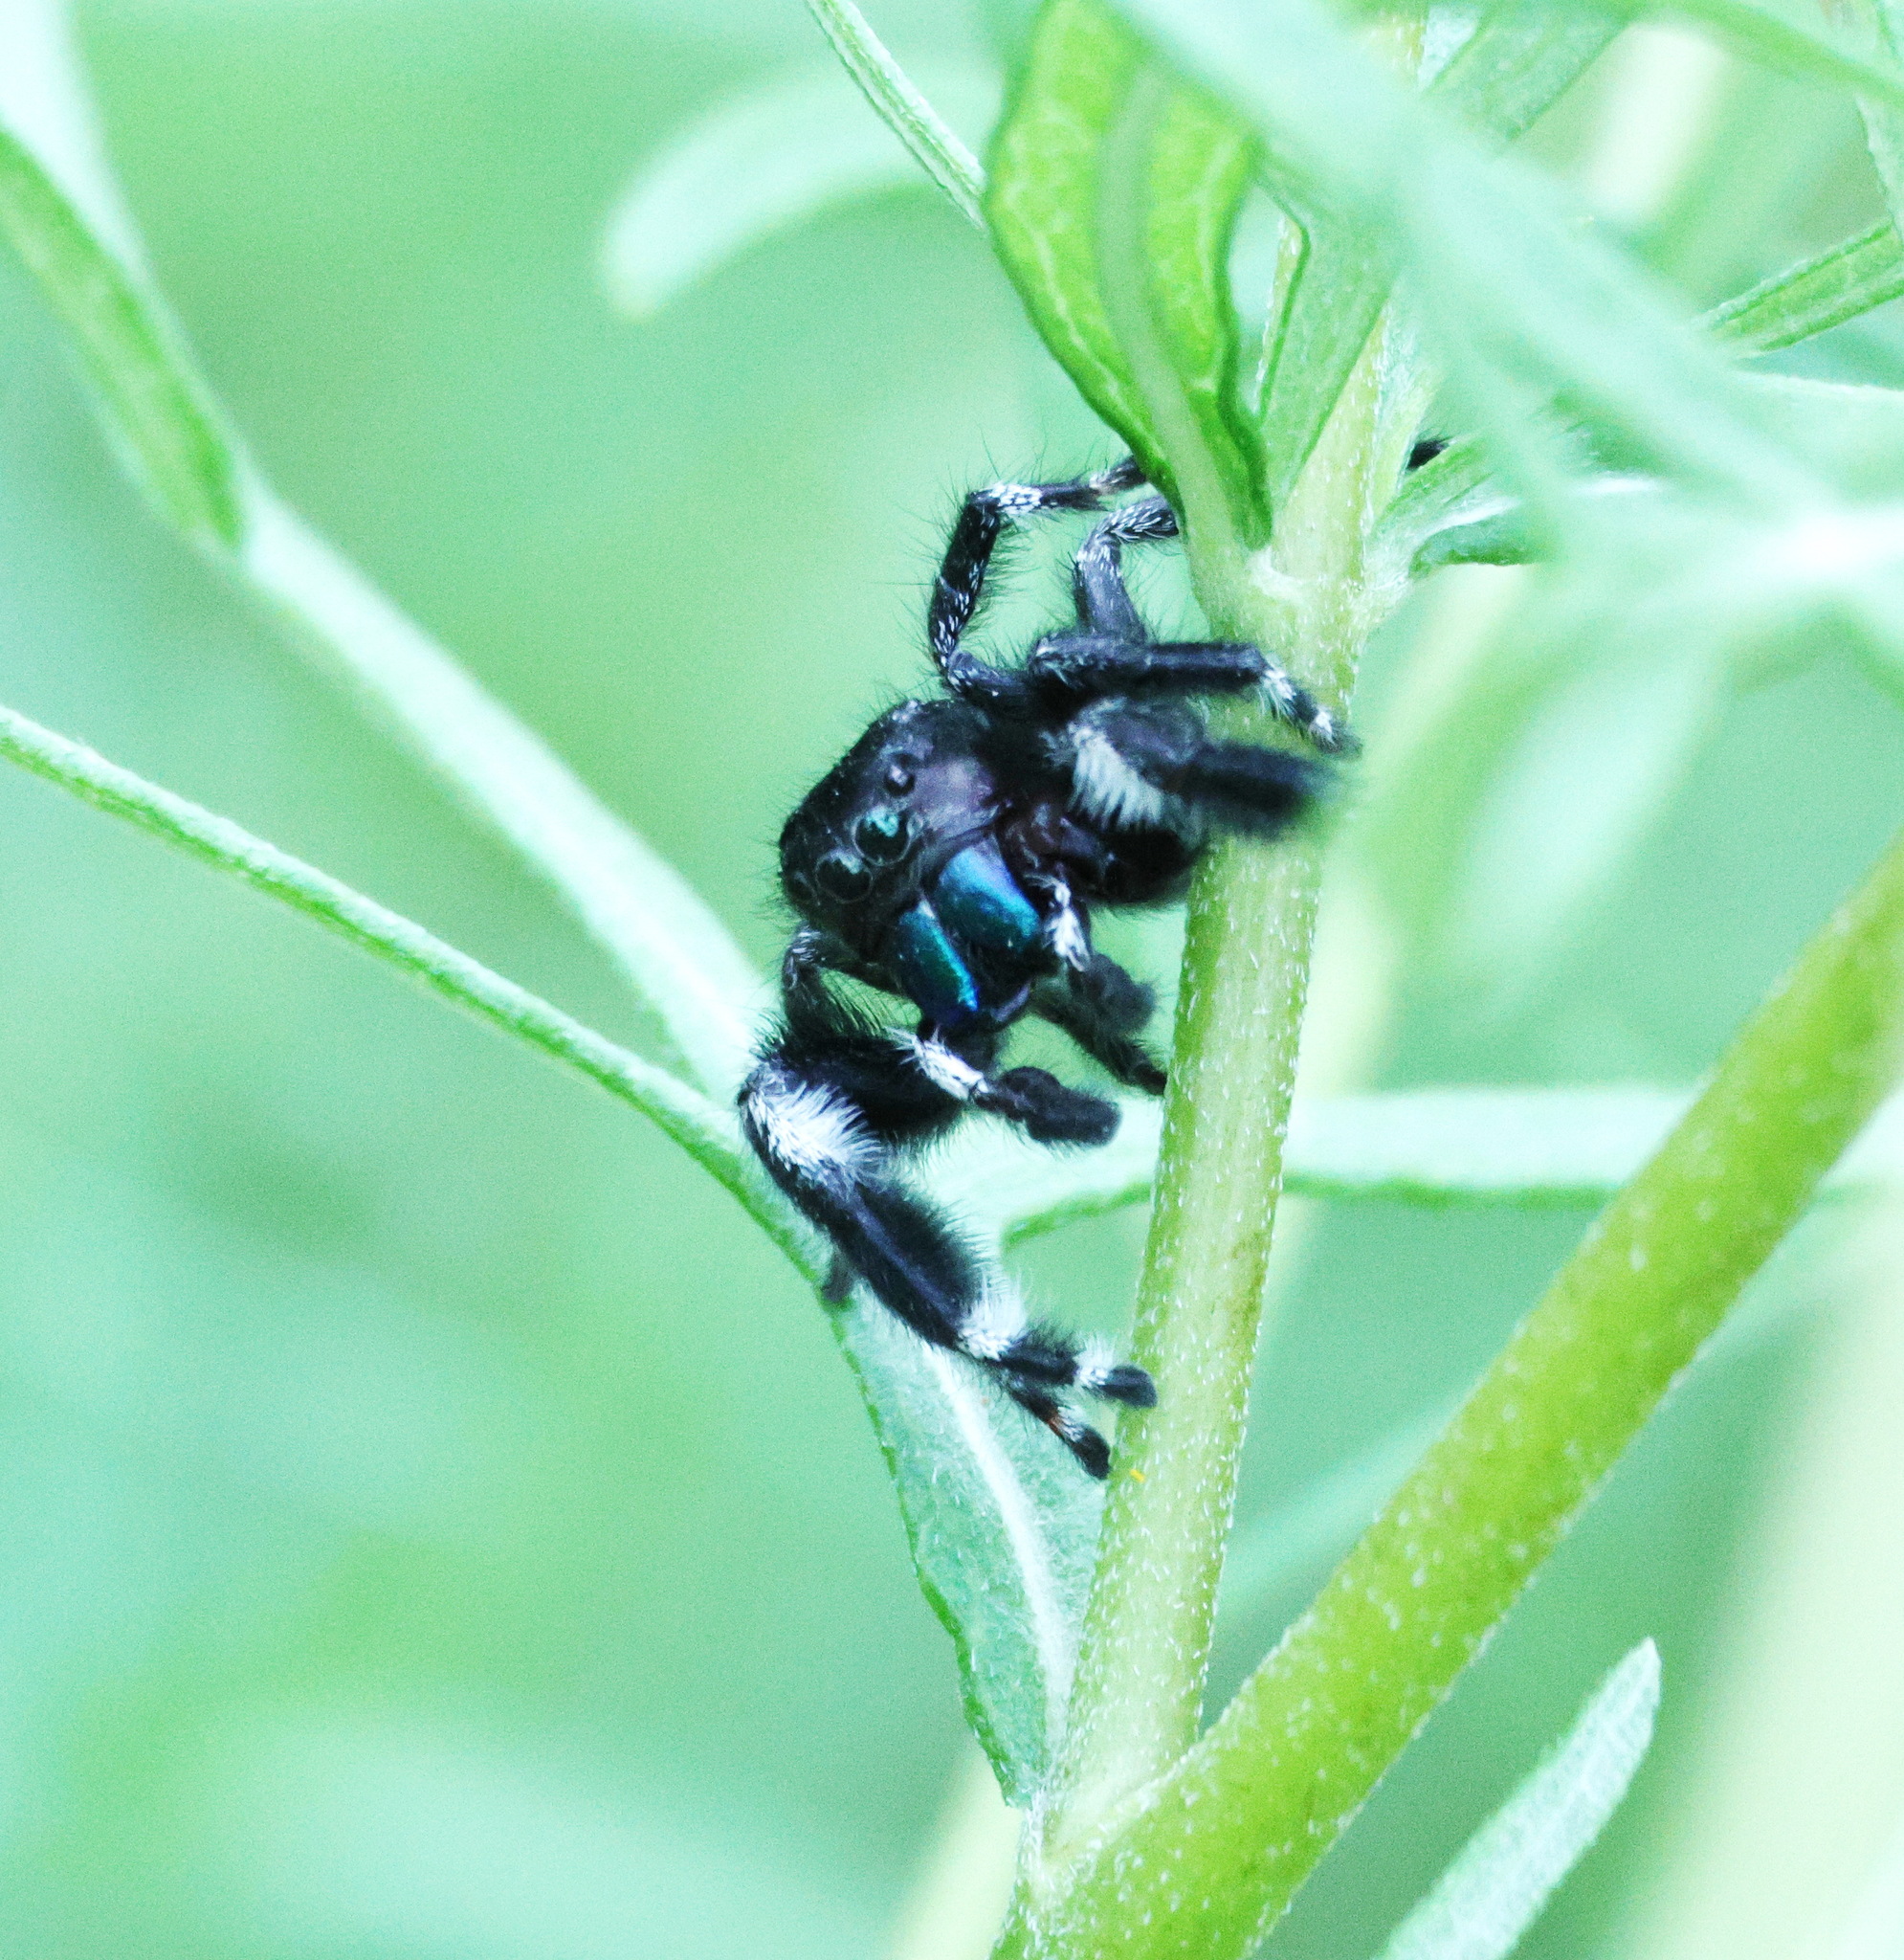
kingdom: Animalia
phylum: Arthropoda
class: Arachnida
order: Araneae
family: Salticidae
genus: Phidippus
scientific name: Phidippus audax
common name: Bold jumper
